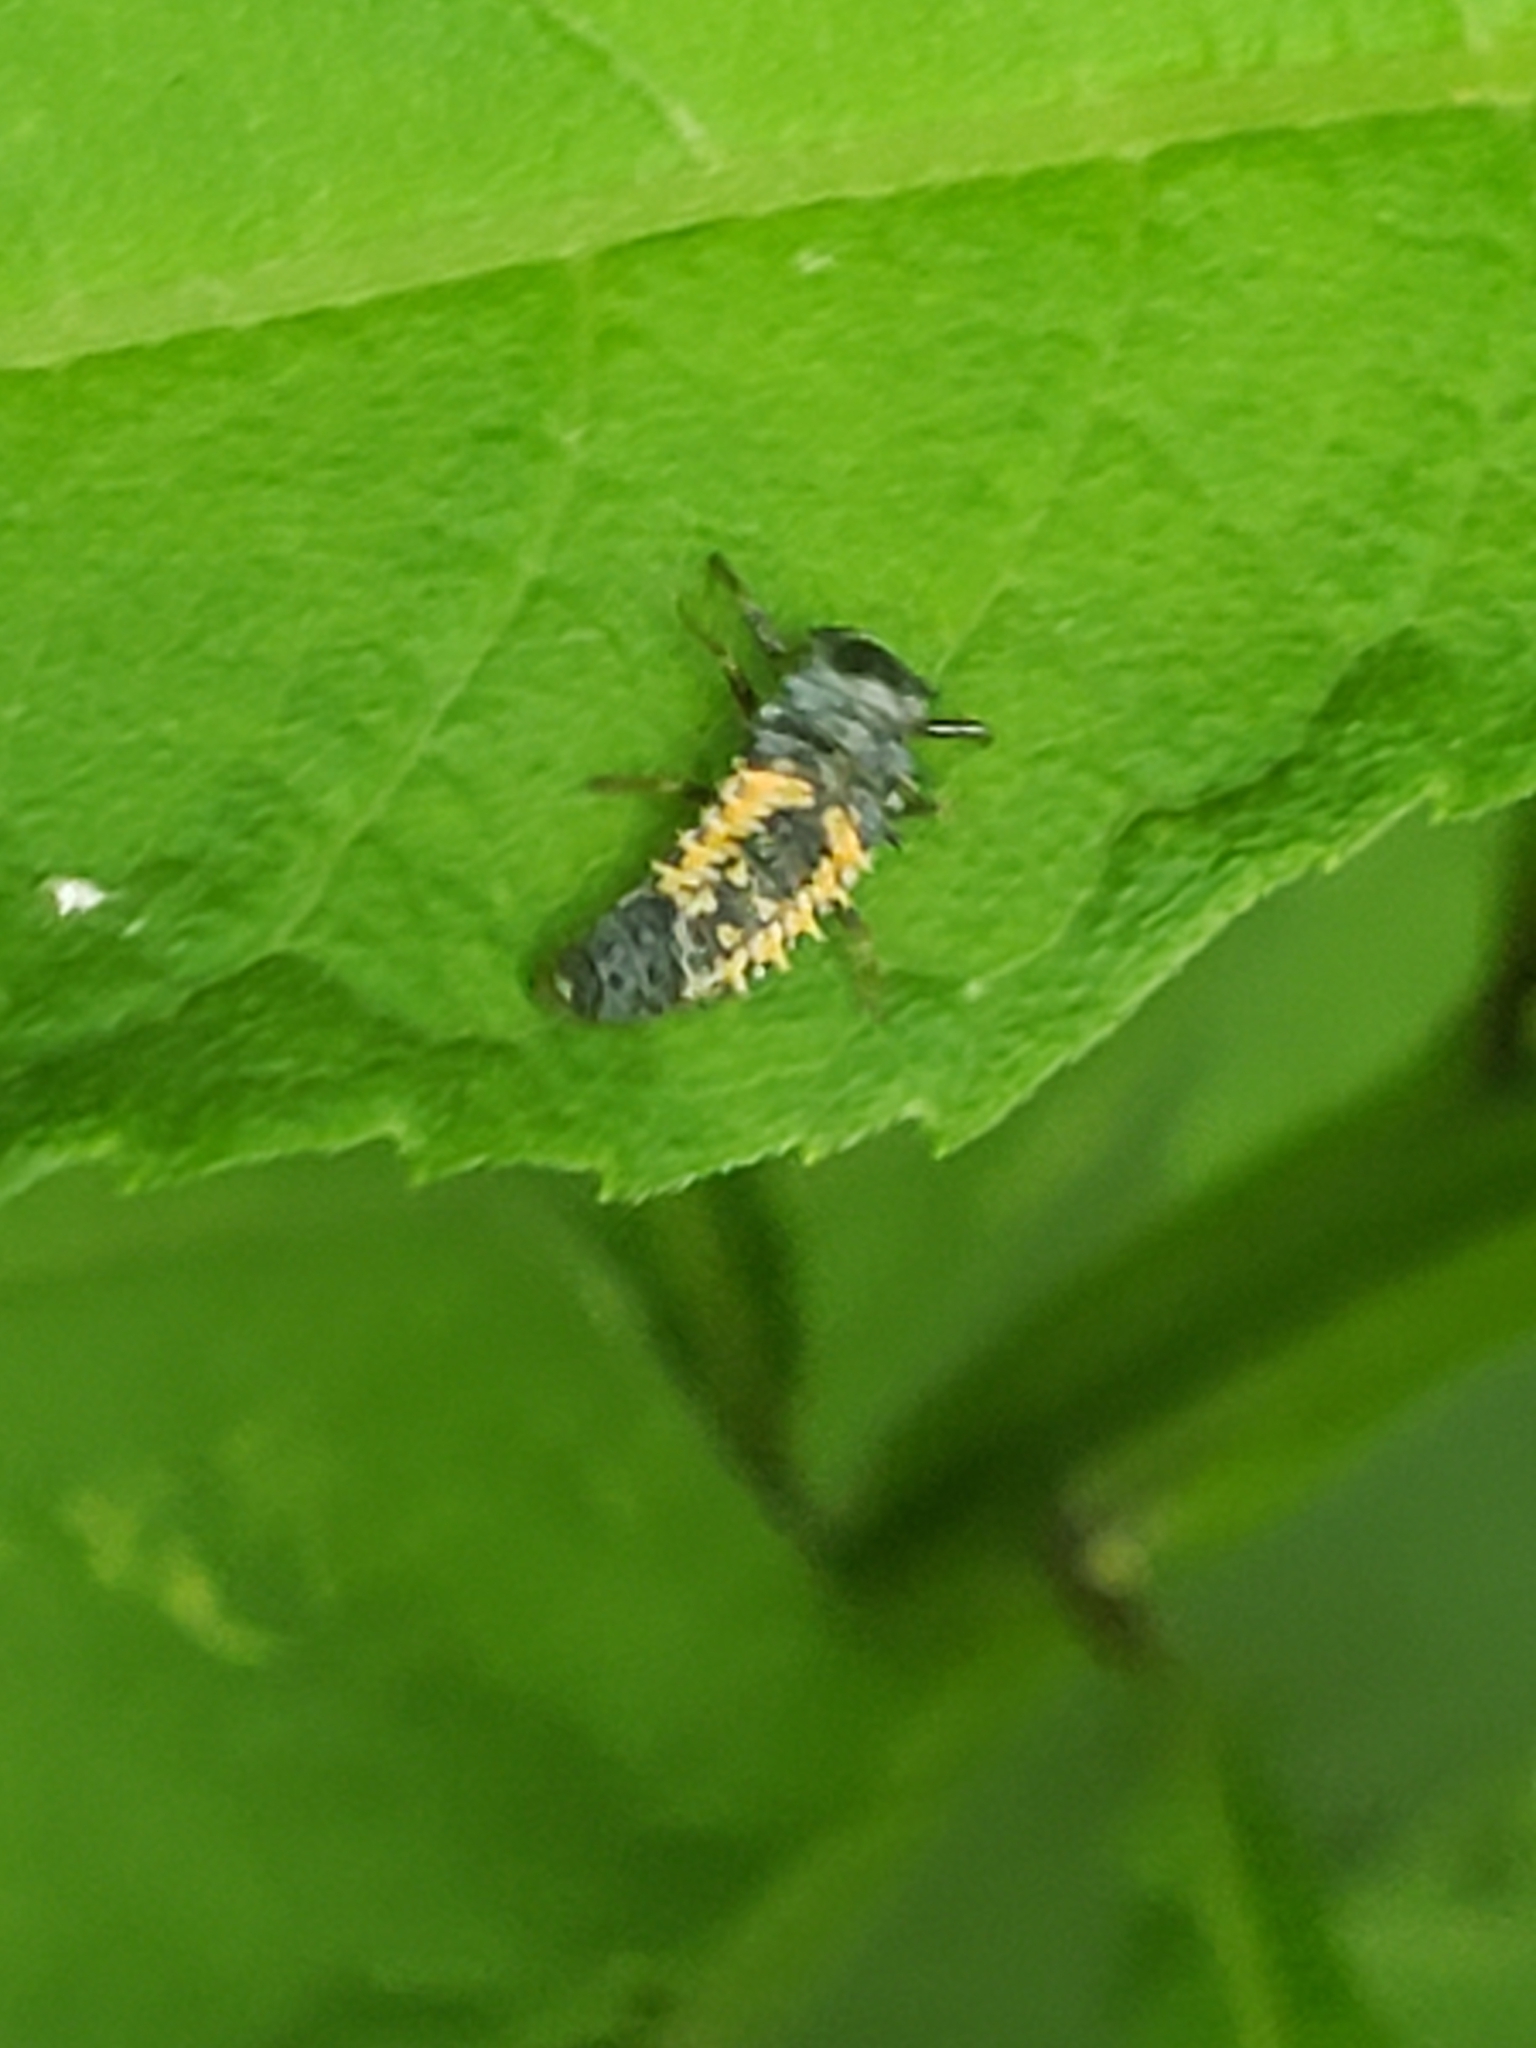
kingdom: Animalia
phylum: Arthropoda
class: Insecta
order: Coleoptera
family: Coccinellidae
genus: Harmonia
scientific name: Harmonia axyridis
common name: Harlequin ladybird
